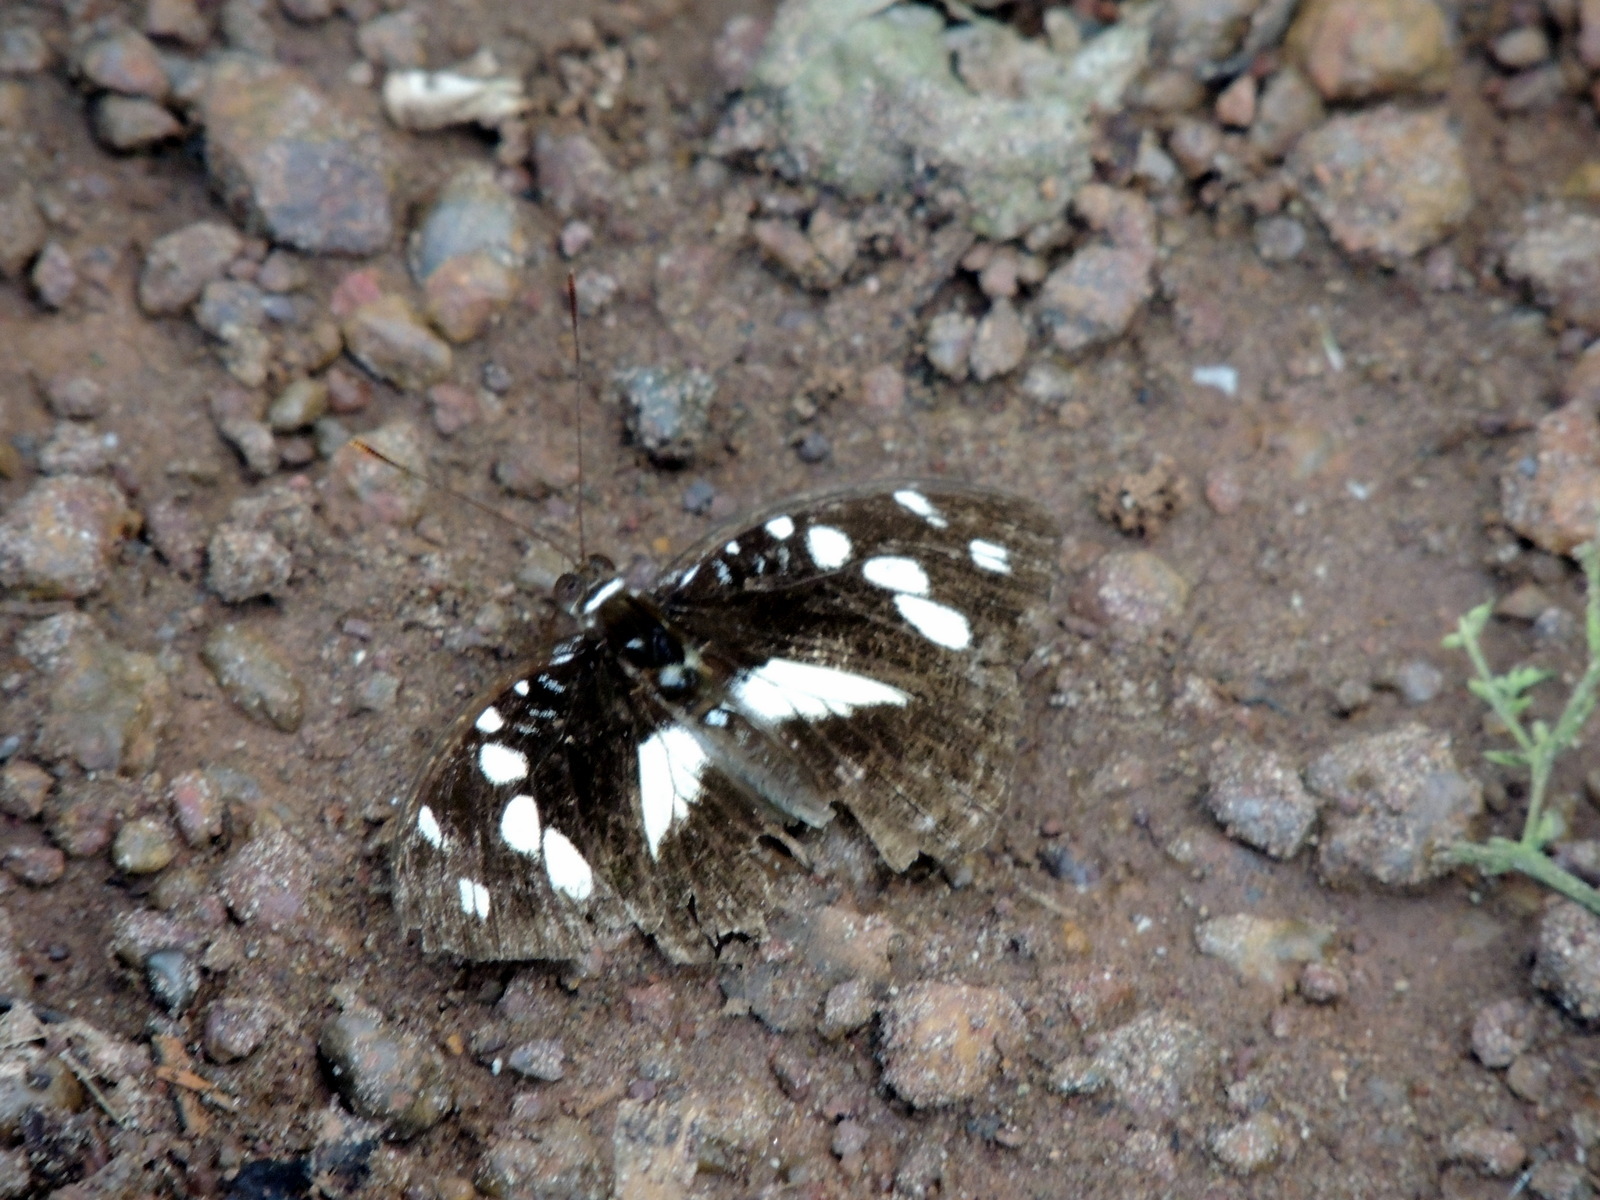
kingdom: Animalia
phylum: Arthropoda
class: Insecta
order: Lepidoptera
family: Nymphalidae
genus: Aterica
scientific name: Aterica galene
